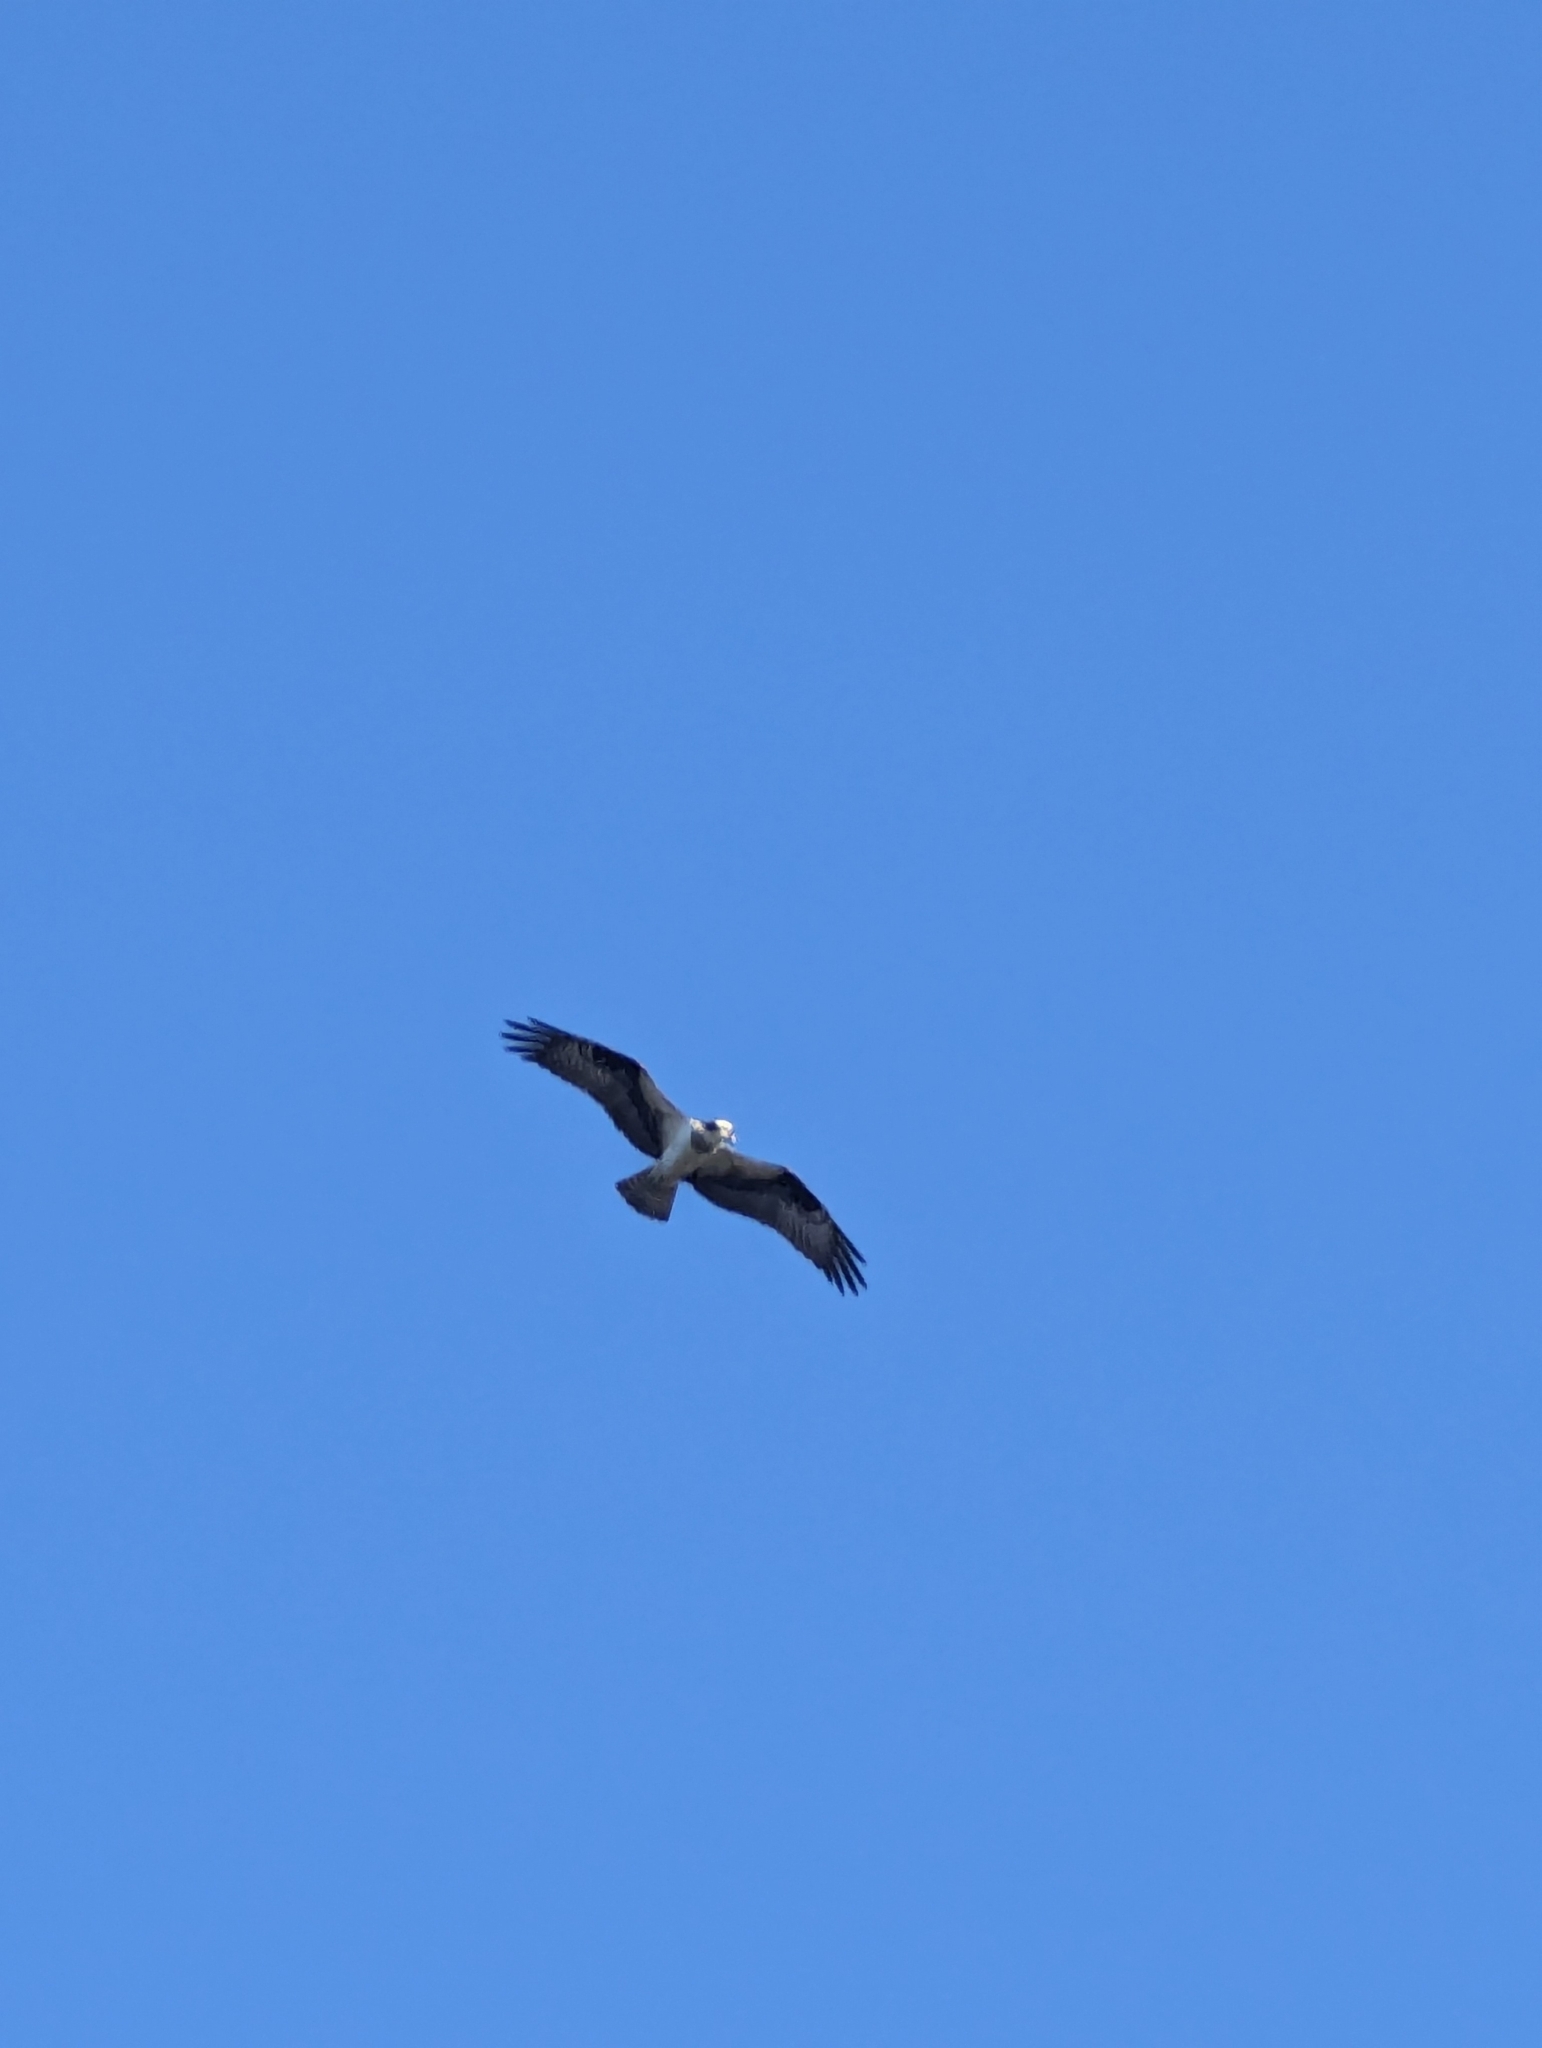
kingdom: Animalia
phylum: Chordata
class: Aves
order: Accipitriformes
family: Pandionidae
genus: Pandion
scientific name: Pandion haliaetus
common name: Osprey
